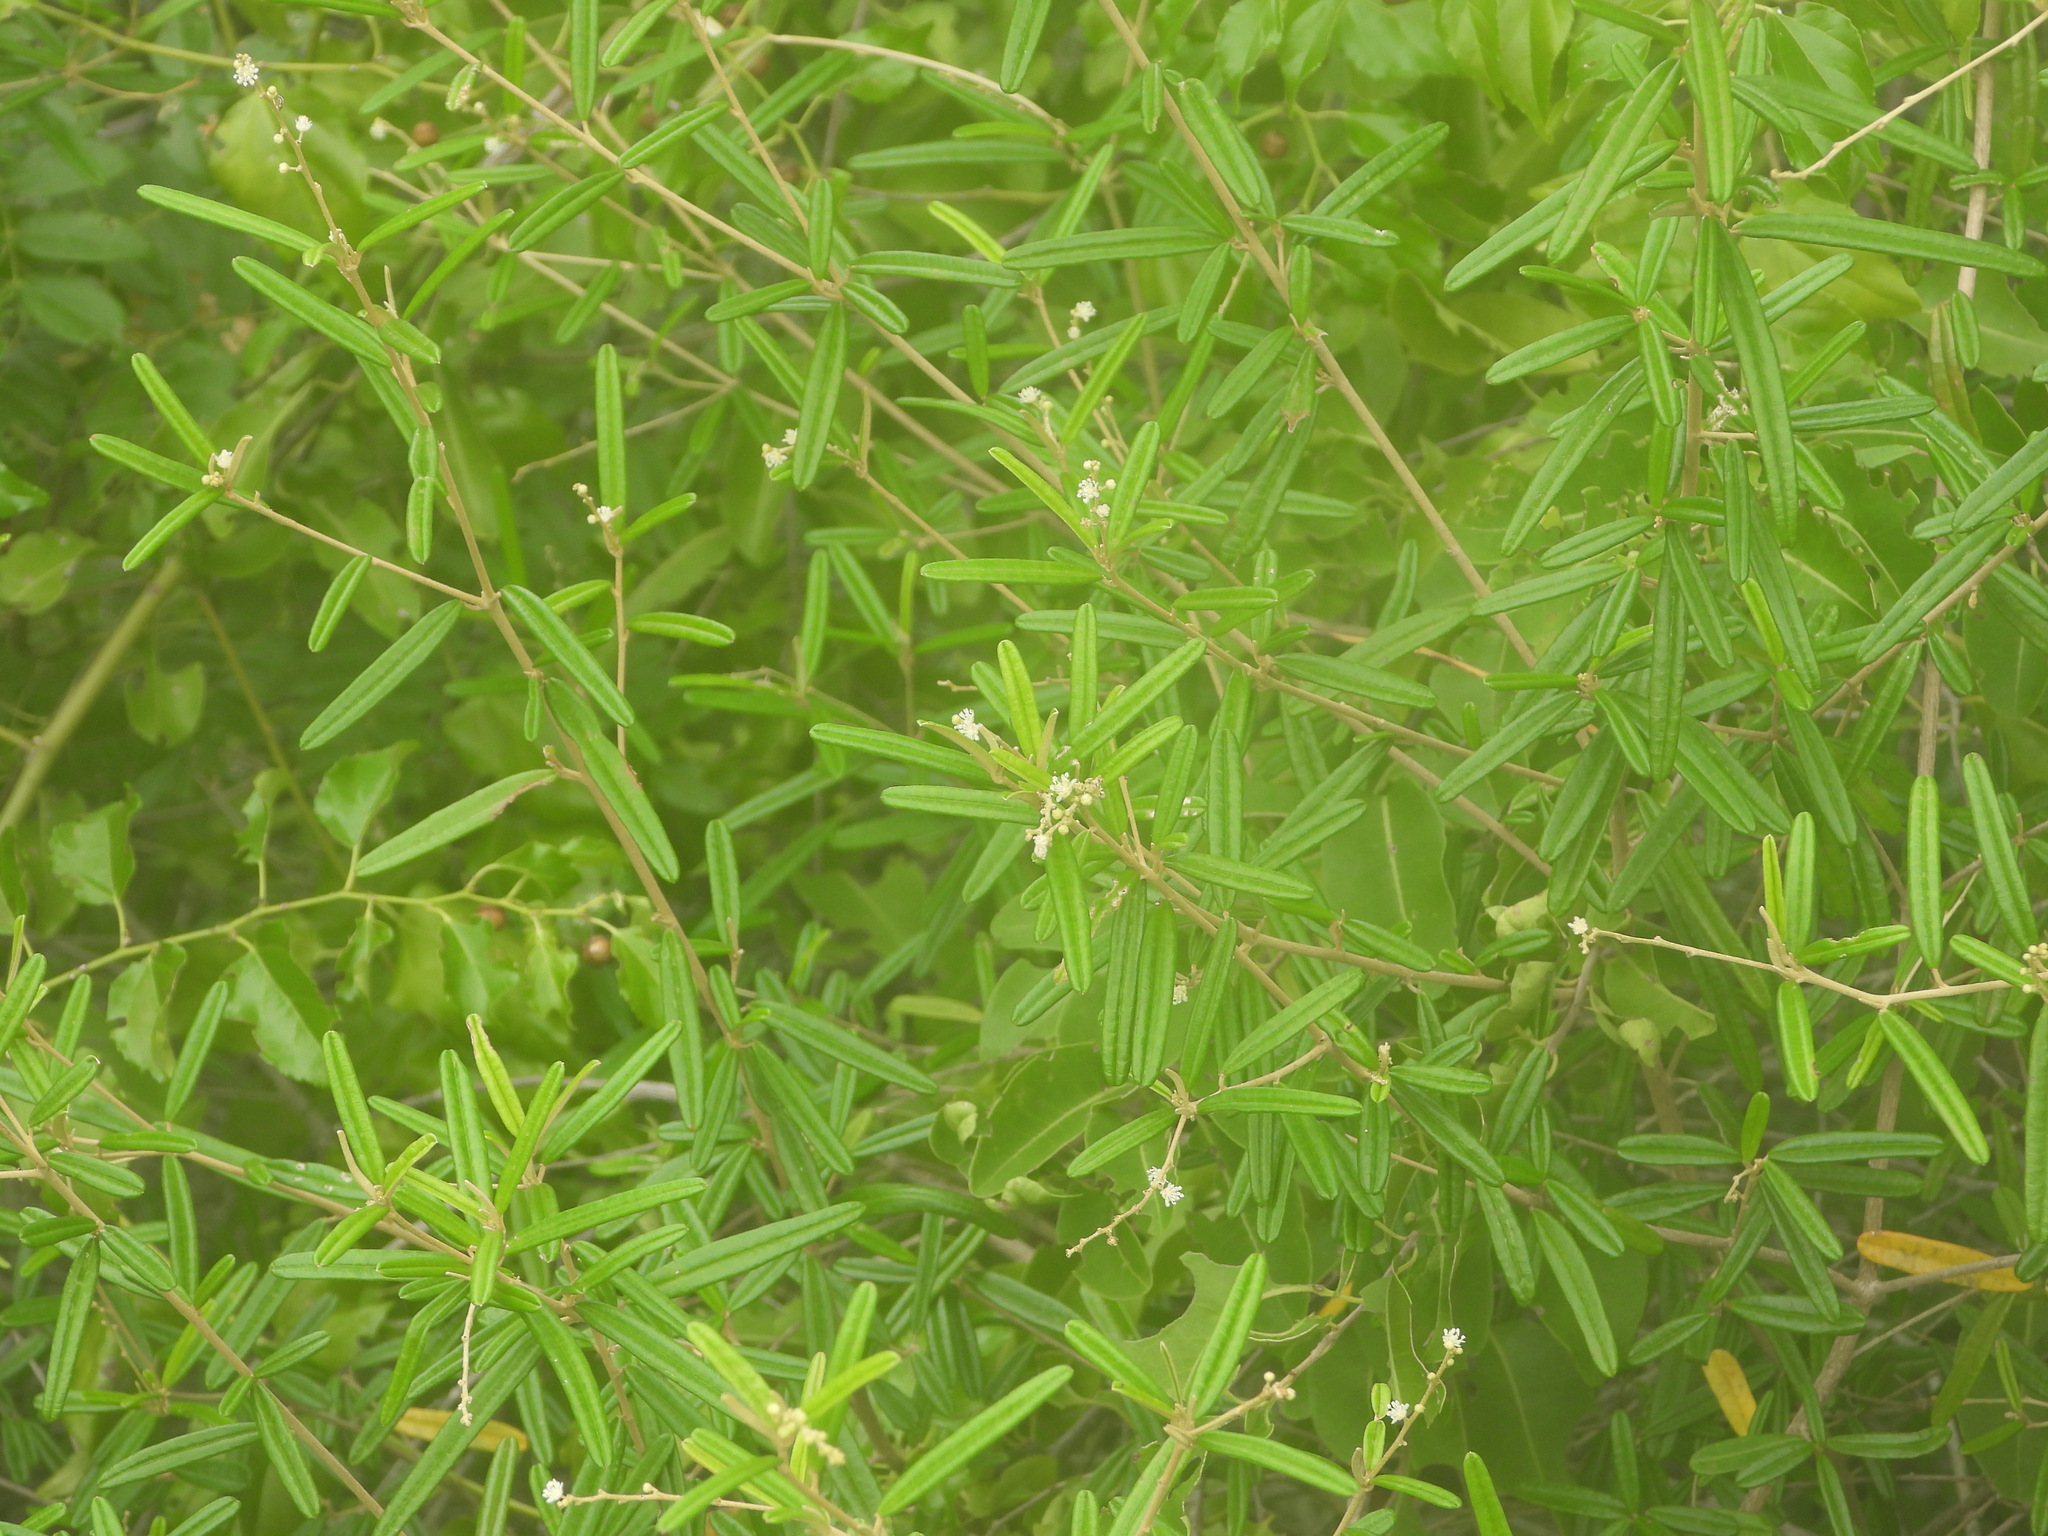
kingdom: Plantae
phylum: Tracheophyta
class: Magnoliopsida
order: Malpighiales
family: Euphorbiaceae
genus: Croton
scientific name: Croton linearis
